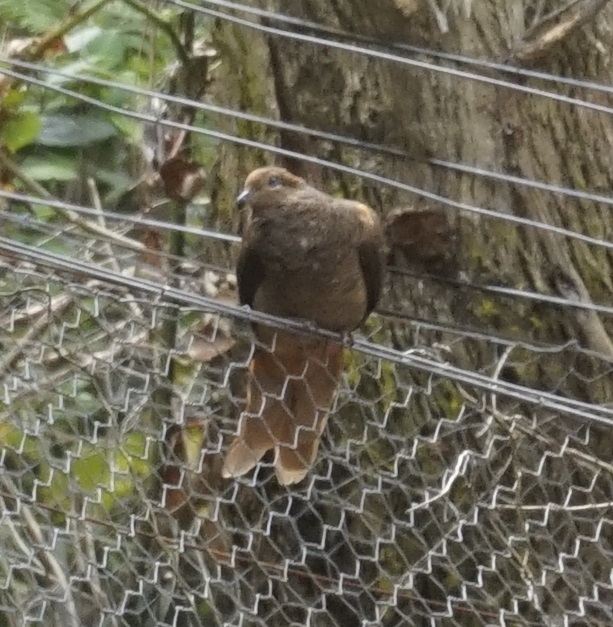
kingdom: Animalia
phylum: Chordata
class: Aves
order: Columbiformes
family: Columbidae
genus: Macropygia
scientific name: Macropygia phasianella
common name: Brown cuckoo-dove
